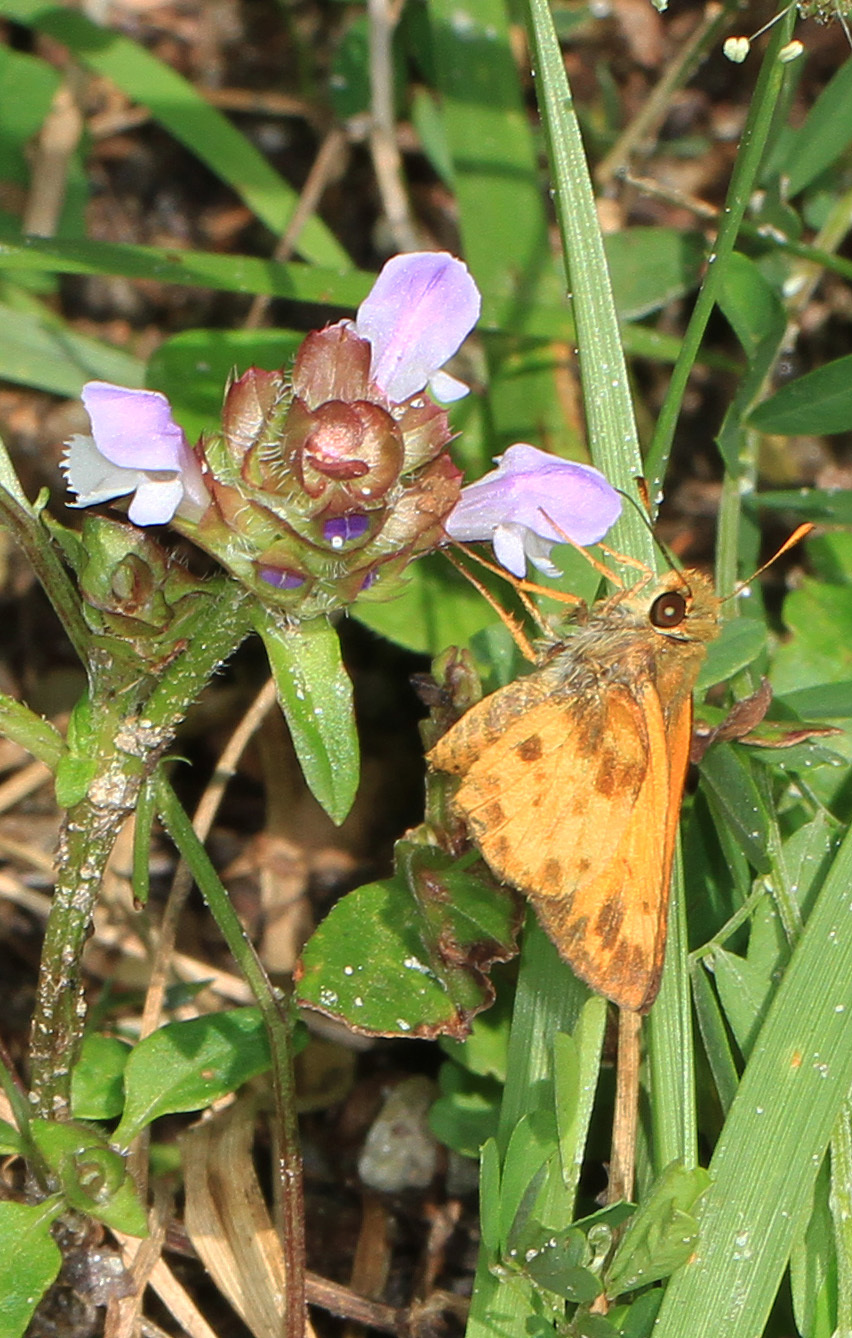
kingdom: Animalia
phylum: Arthropoda
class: Insecta
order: Lepidoptera
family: Hesperiidae
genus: Lon
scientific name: Lon zabulon
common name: Zabulon skipper
